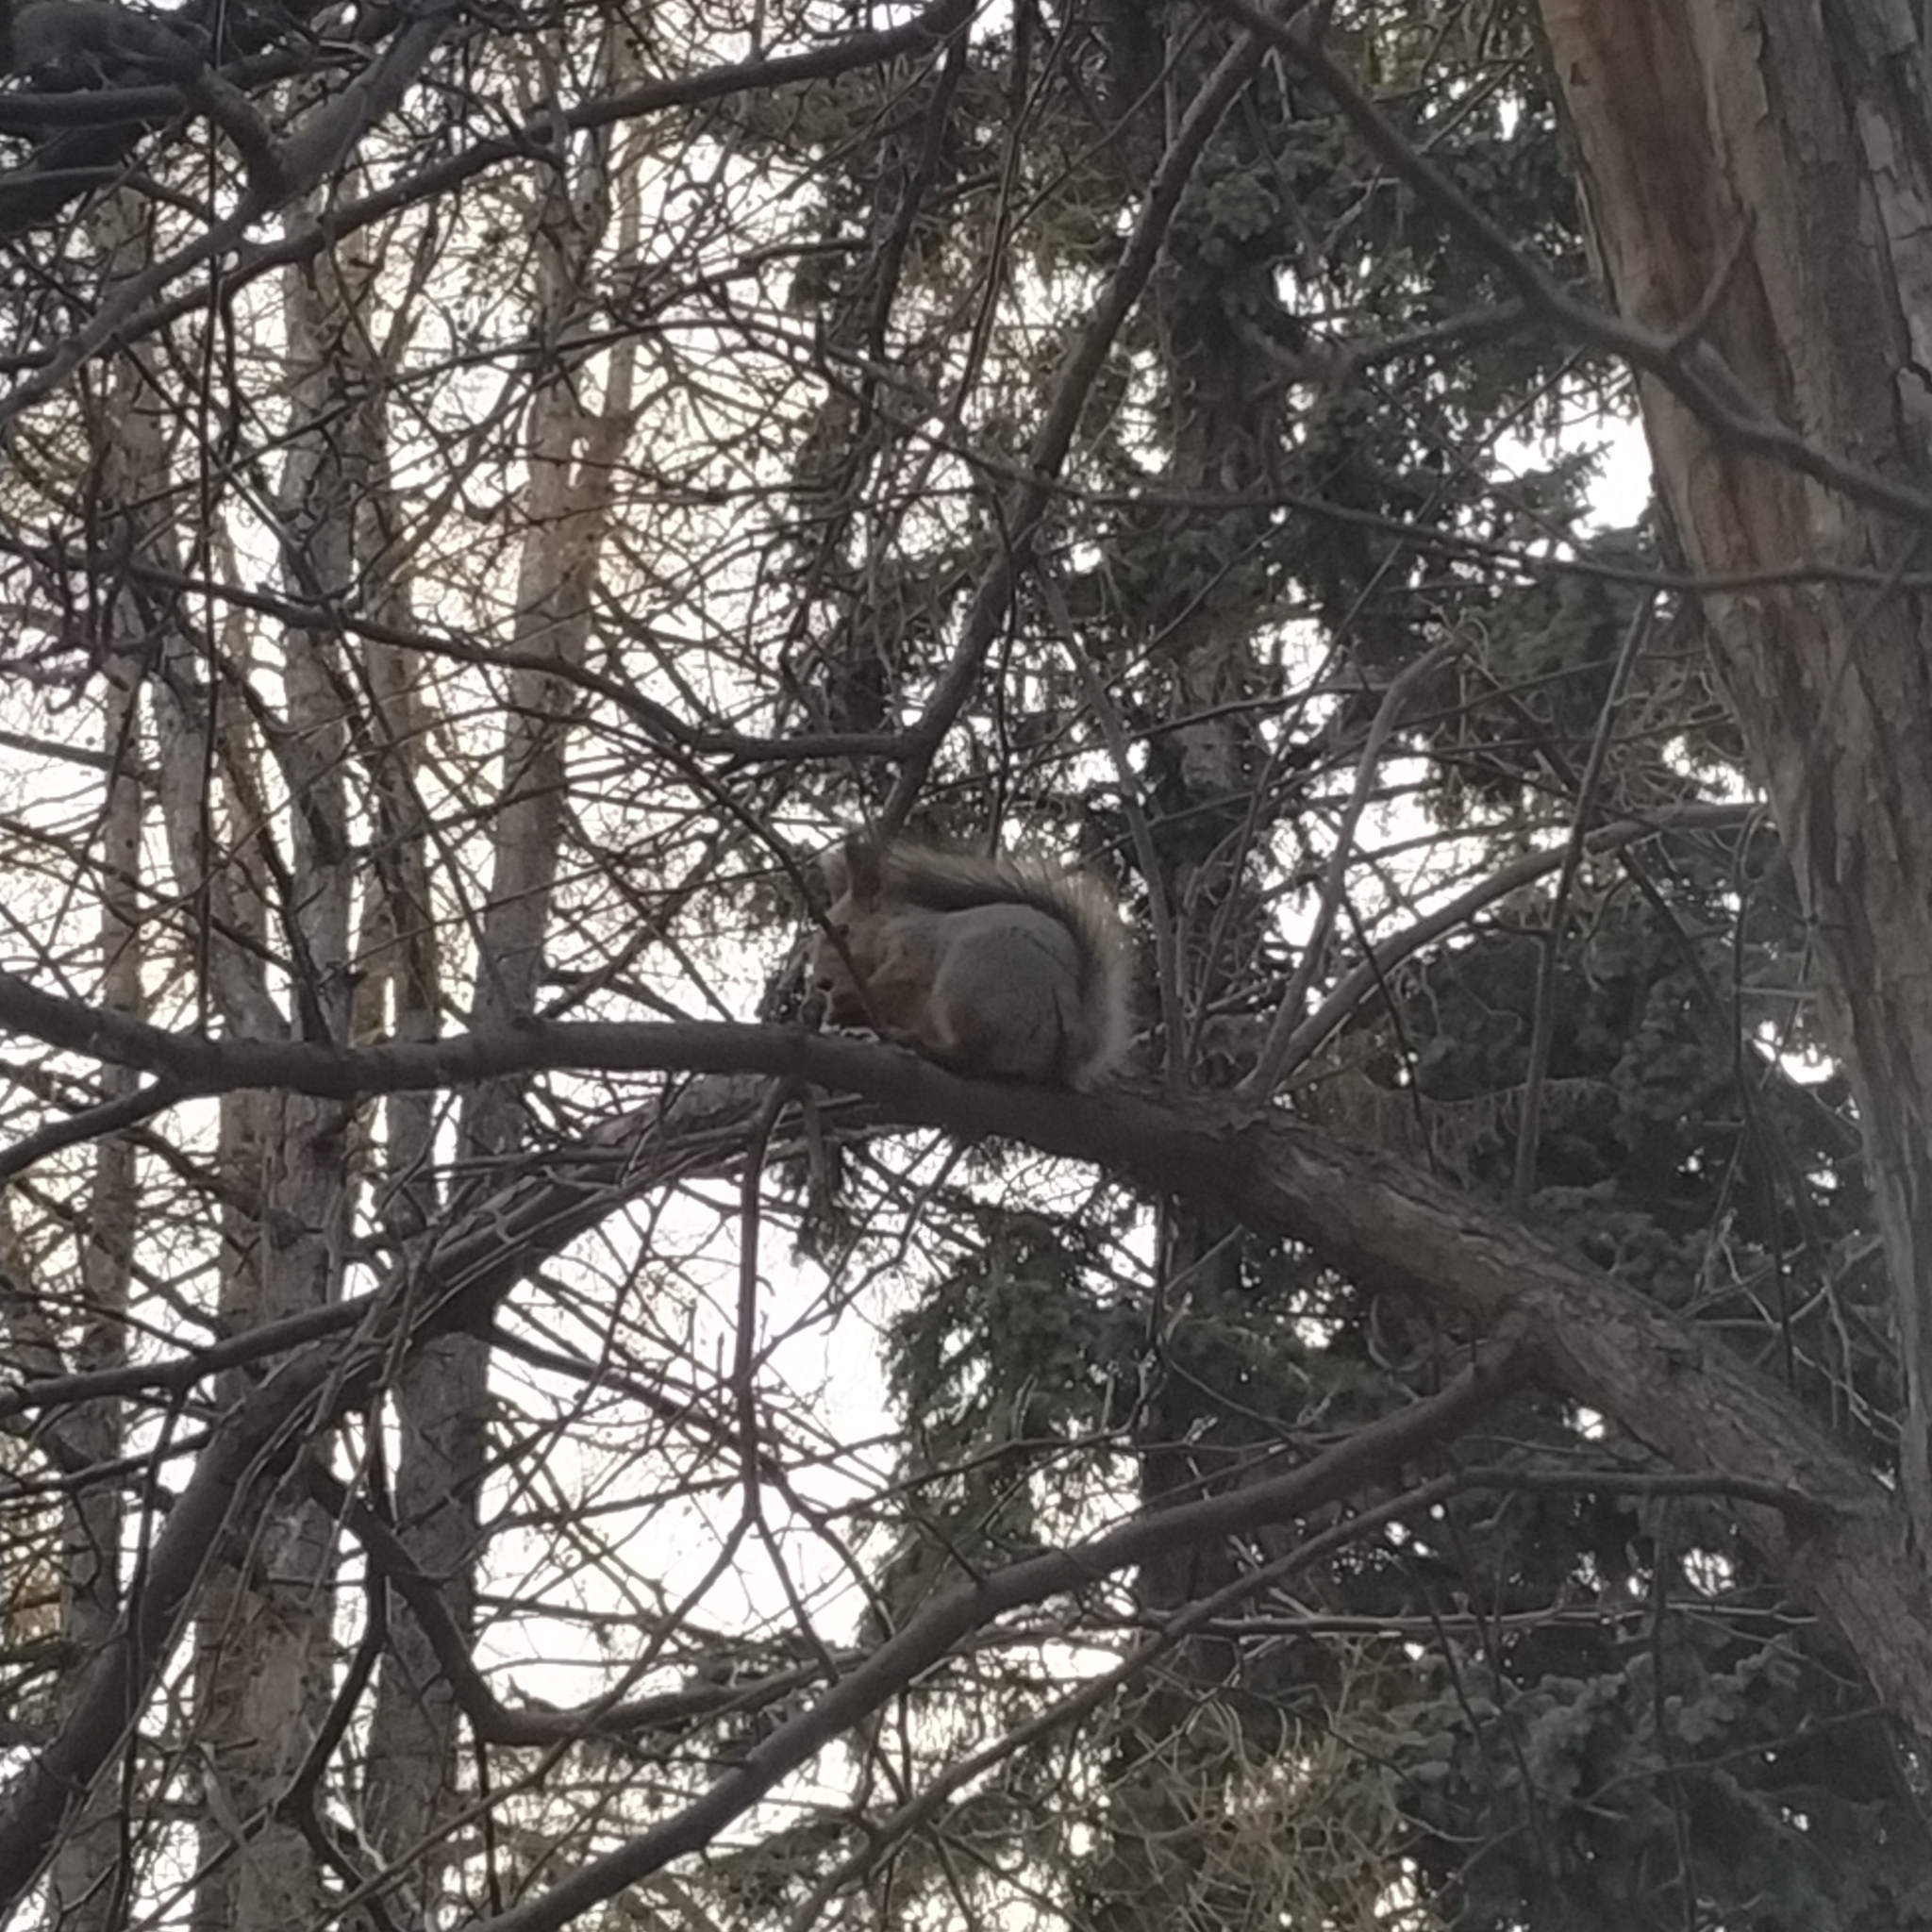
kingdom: Animalia
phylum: Chordata
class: Mammalia
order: Rodentia
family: Sciuridae
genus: Sciurus
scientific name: Sciurus vulgaris
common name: Eurasian red squirrel
